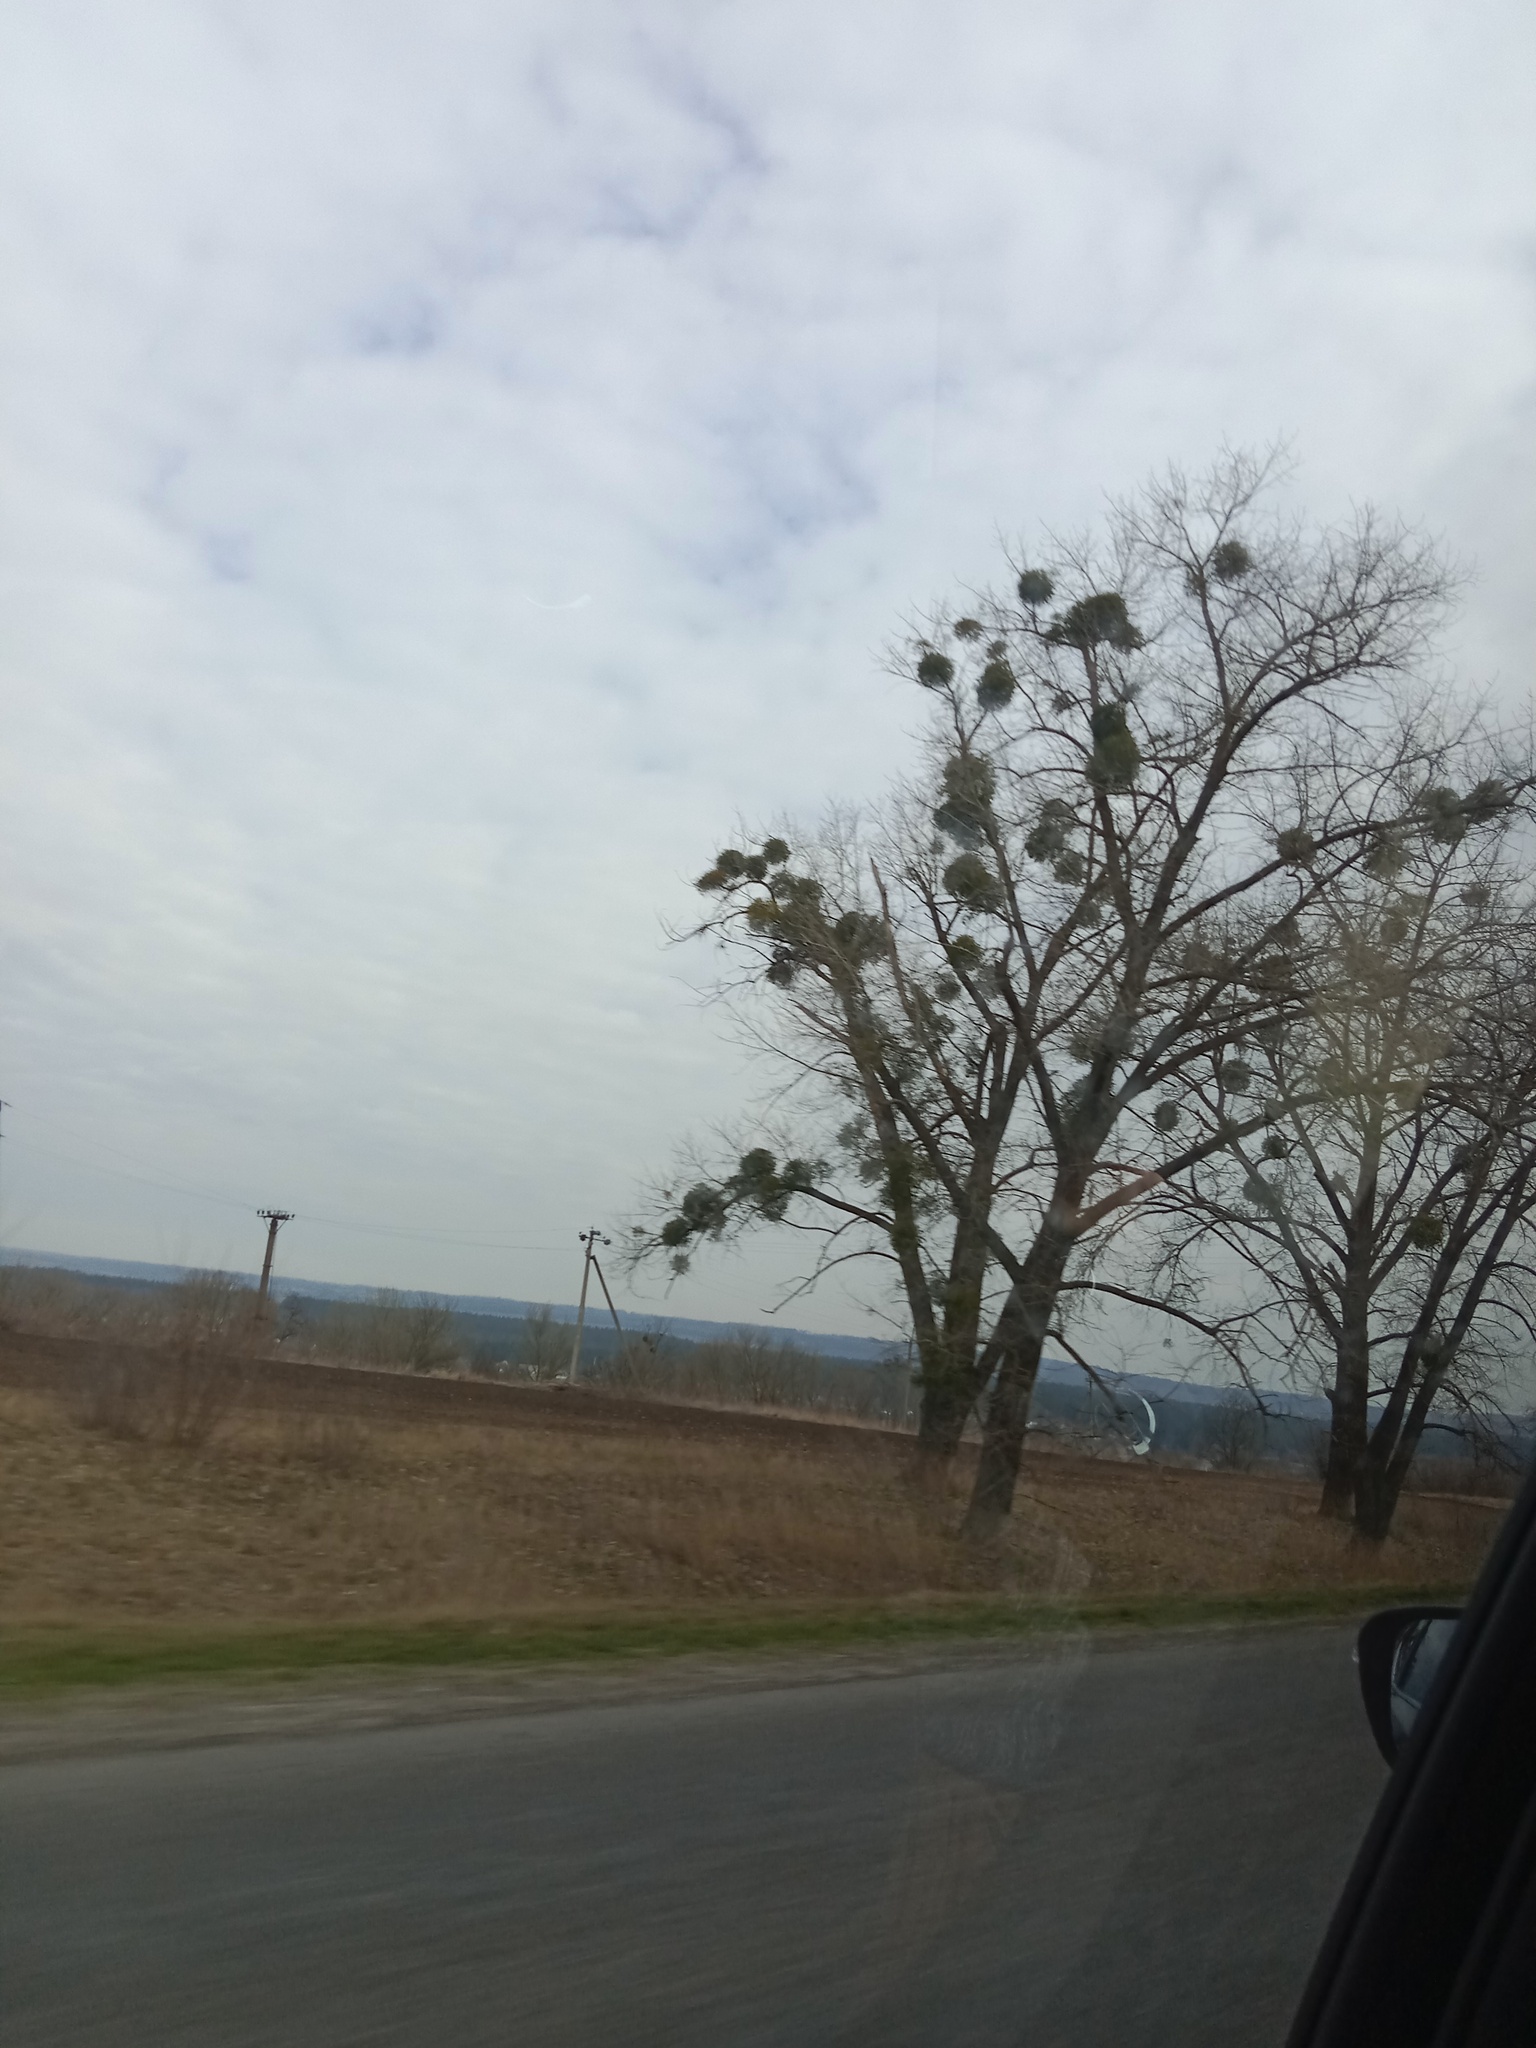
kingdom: Plantae
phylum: Tracheophyta
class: Magnoliopsida
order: Santalales
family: Viscaceae
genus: Viscum
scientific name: Viscum album
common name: Mistletoe
